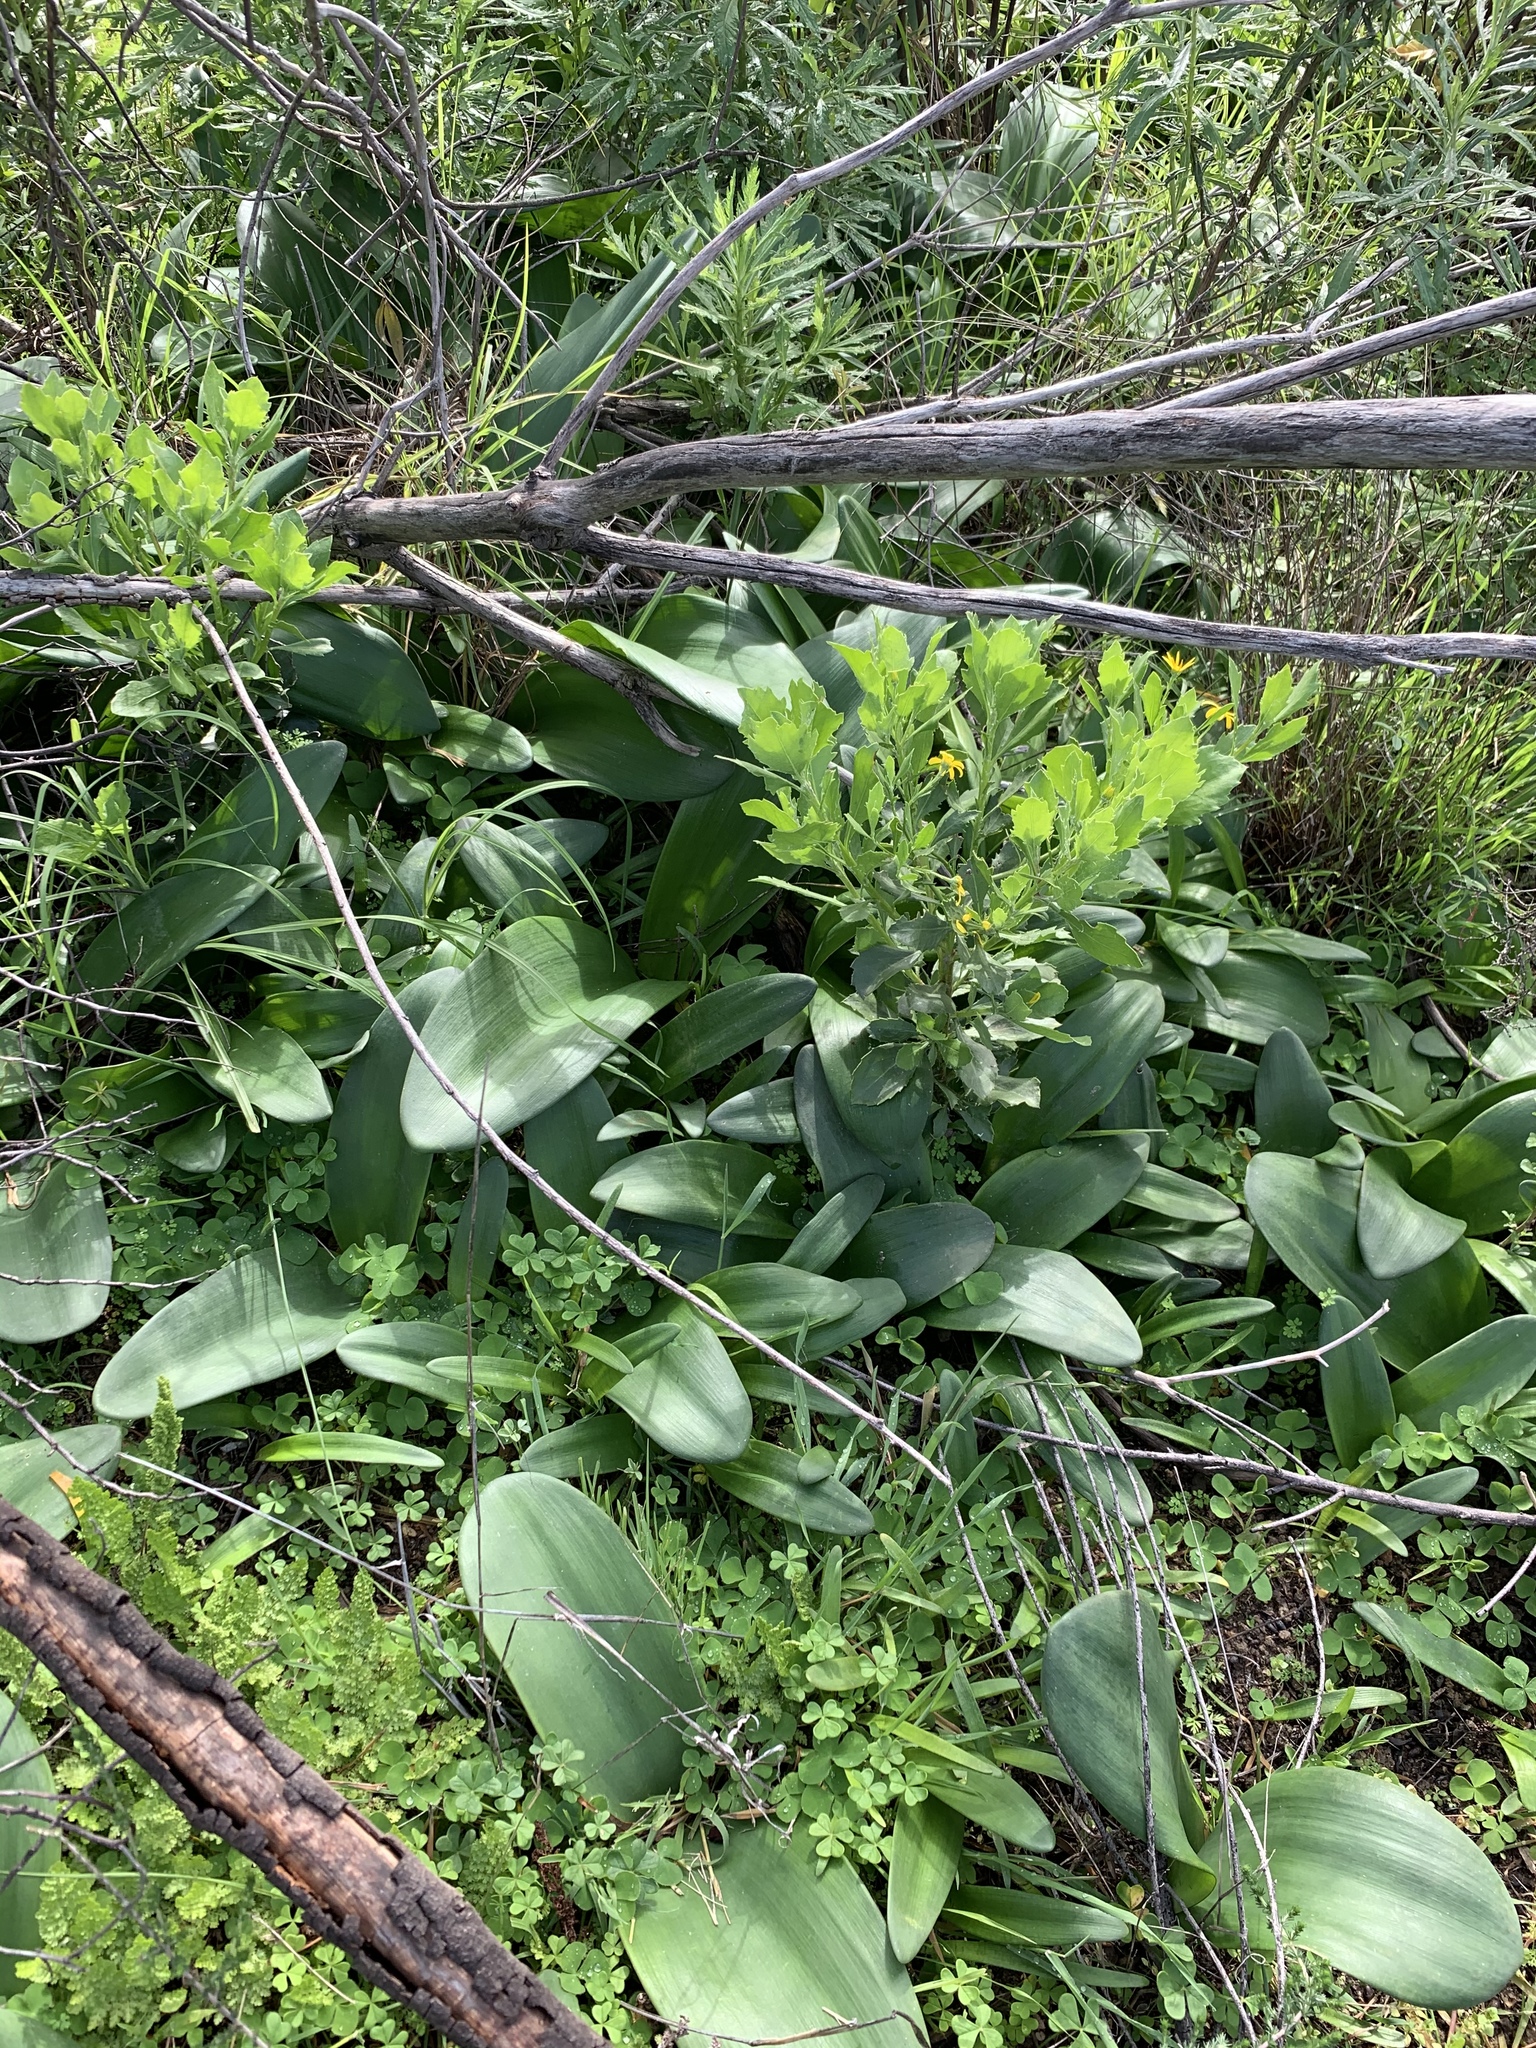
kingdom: Plantae
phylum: Tracheophyta
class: Liliopsida
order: Asparagales
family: Amaryllidaceae
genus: Haemanthus
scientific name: Haemanthus coccineus
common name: Cape-tulip
